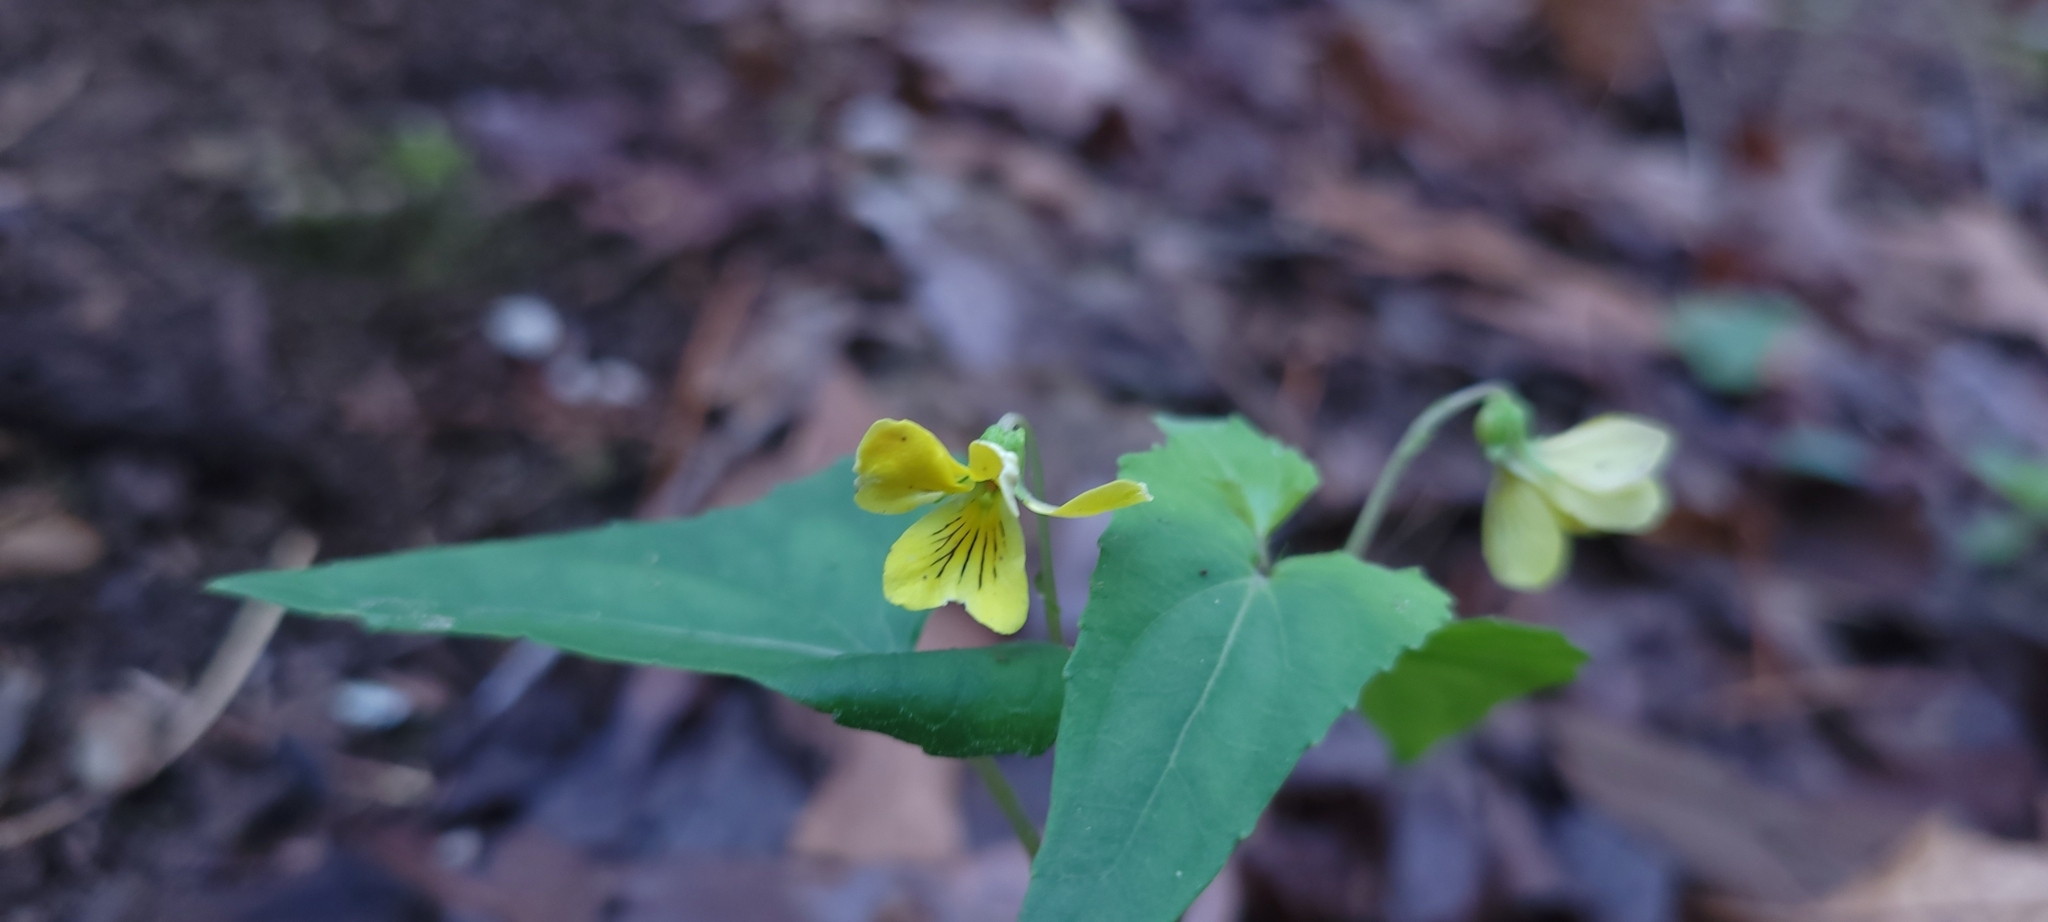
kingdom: Plantae
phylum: Tracheophyta
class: Magnoliopsida
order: Malpighiales
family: Violaceae
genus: Viola
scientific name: Viola hastata
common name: Spear-leaf violet
